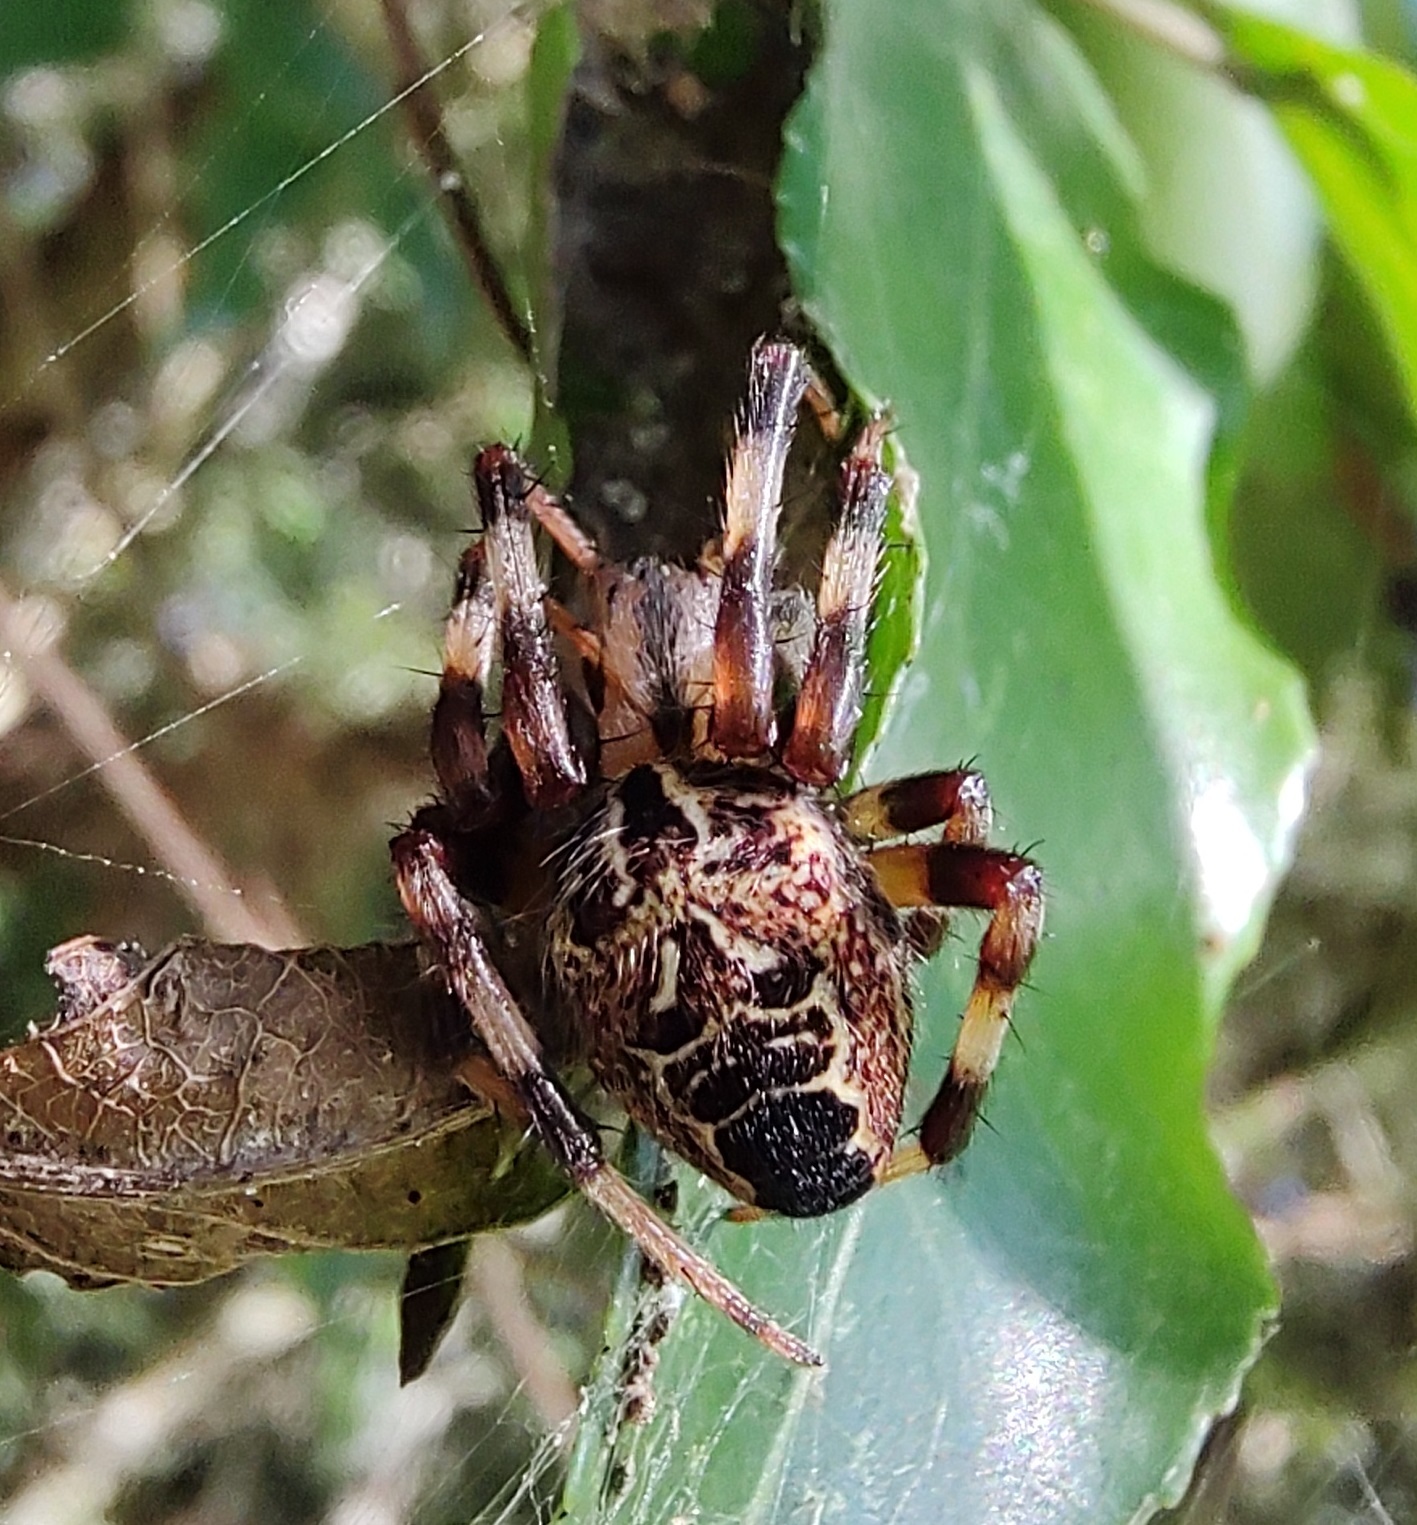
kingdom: Animalia
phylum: Arthropoda
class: Arachnida
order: Araneae
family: Araneidae
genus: Araneus
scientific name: Araneus venatrix
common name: Orb weavers
